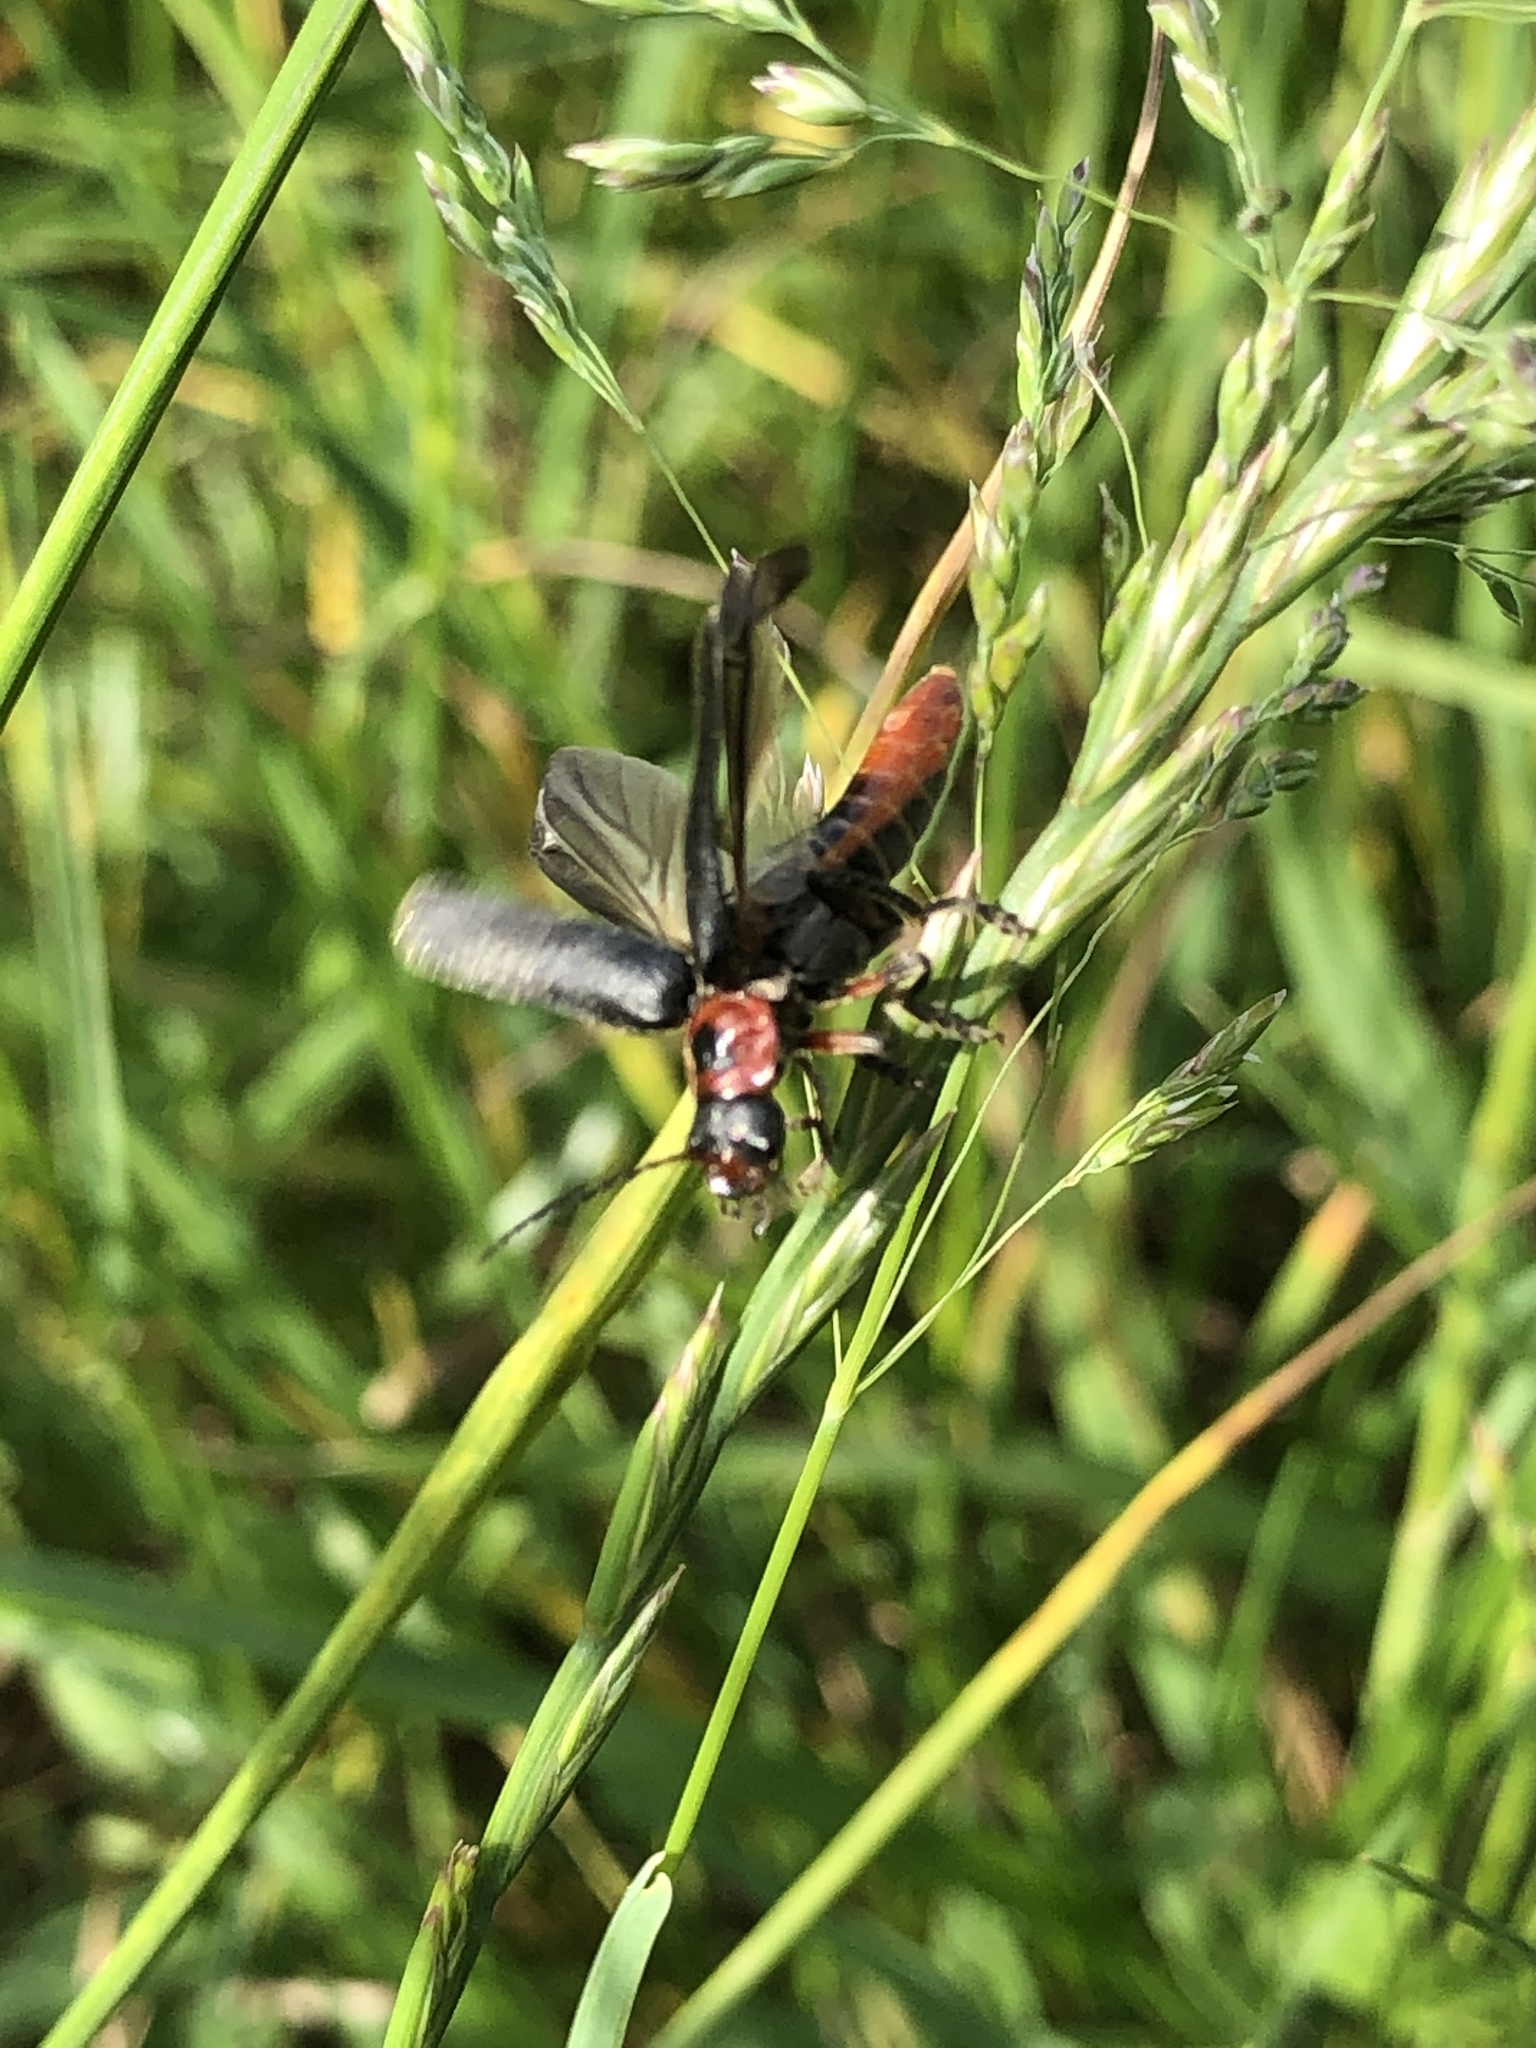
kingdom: Animalia
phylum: Arthropoda
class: Insecta
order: Coleoptera
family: Cantharidae
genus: Cantharis
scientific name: Cantharis rustica
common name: Soldier beetle
